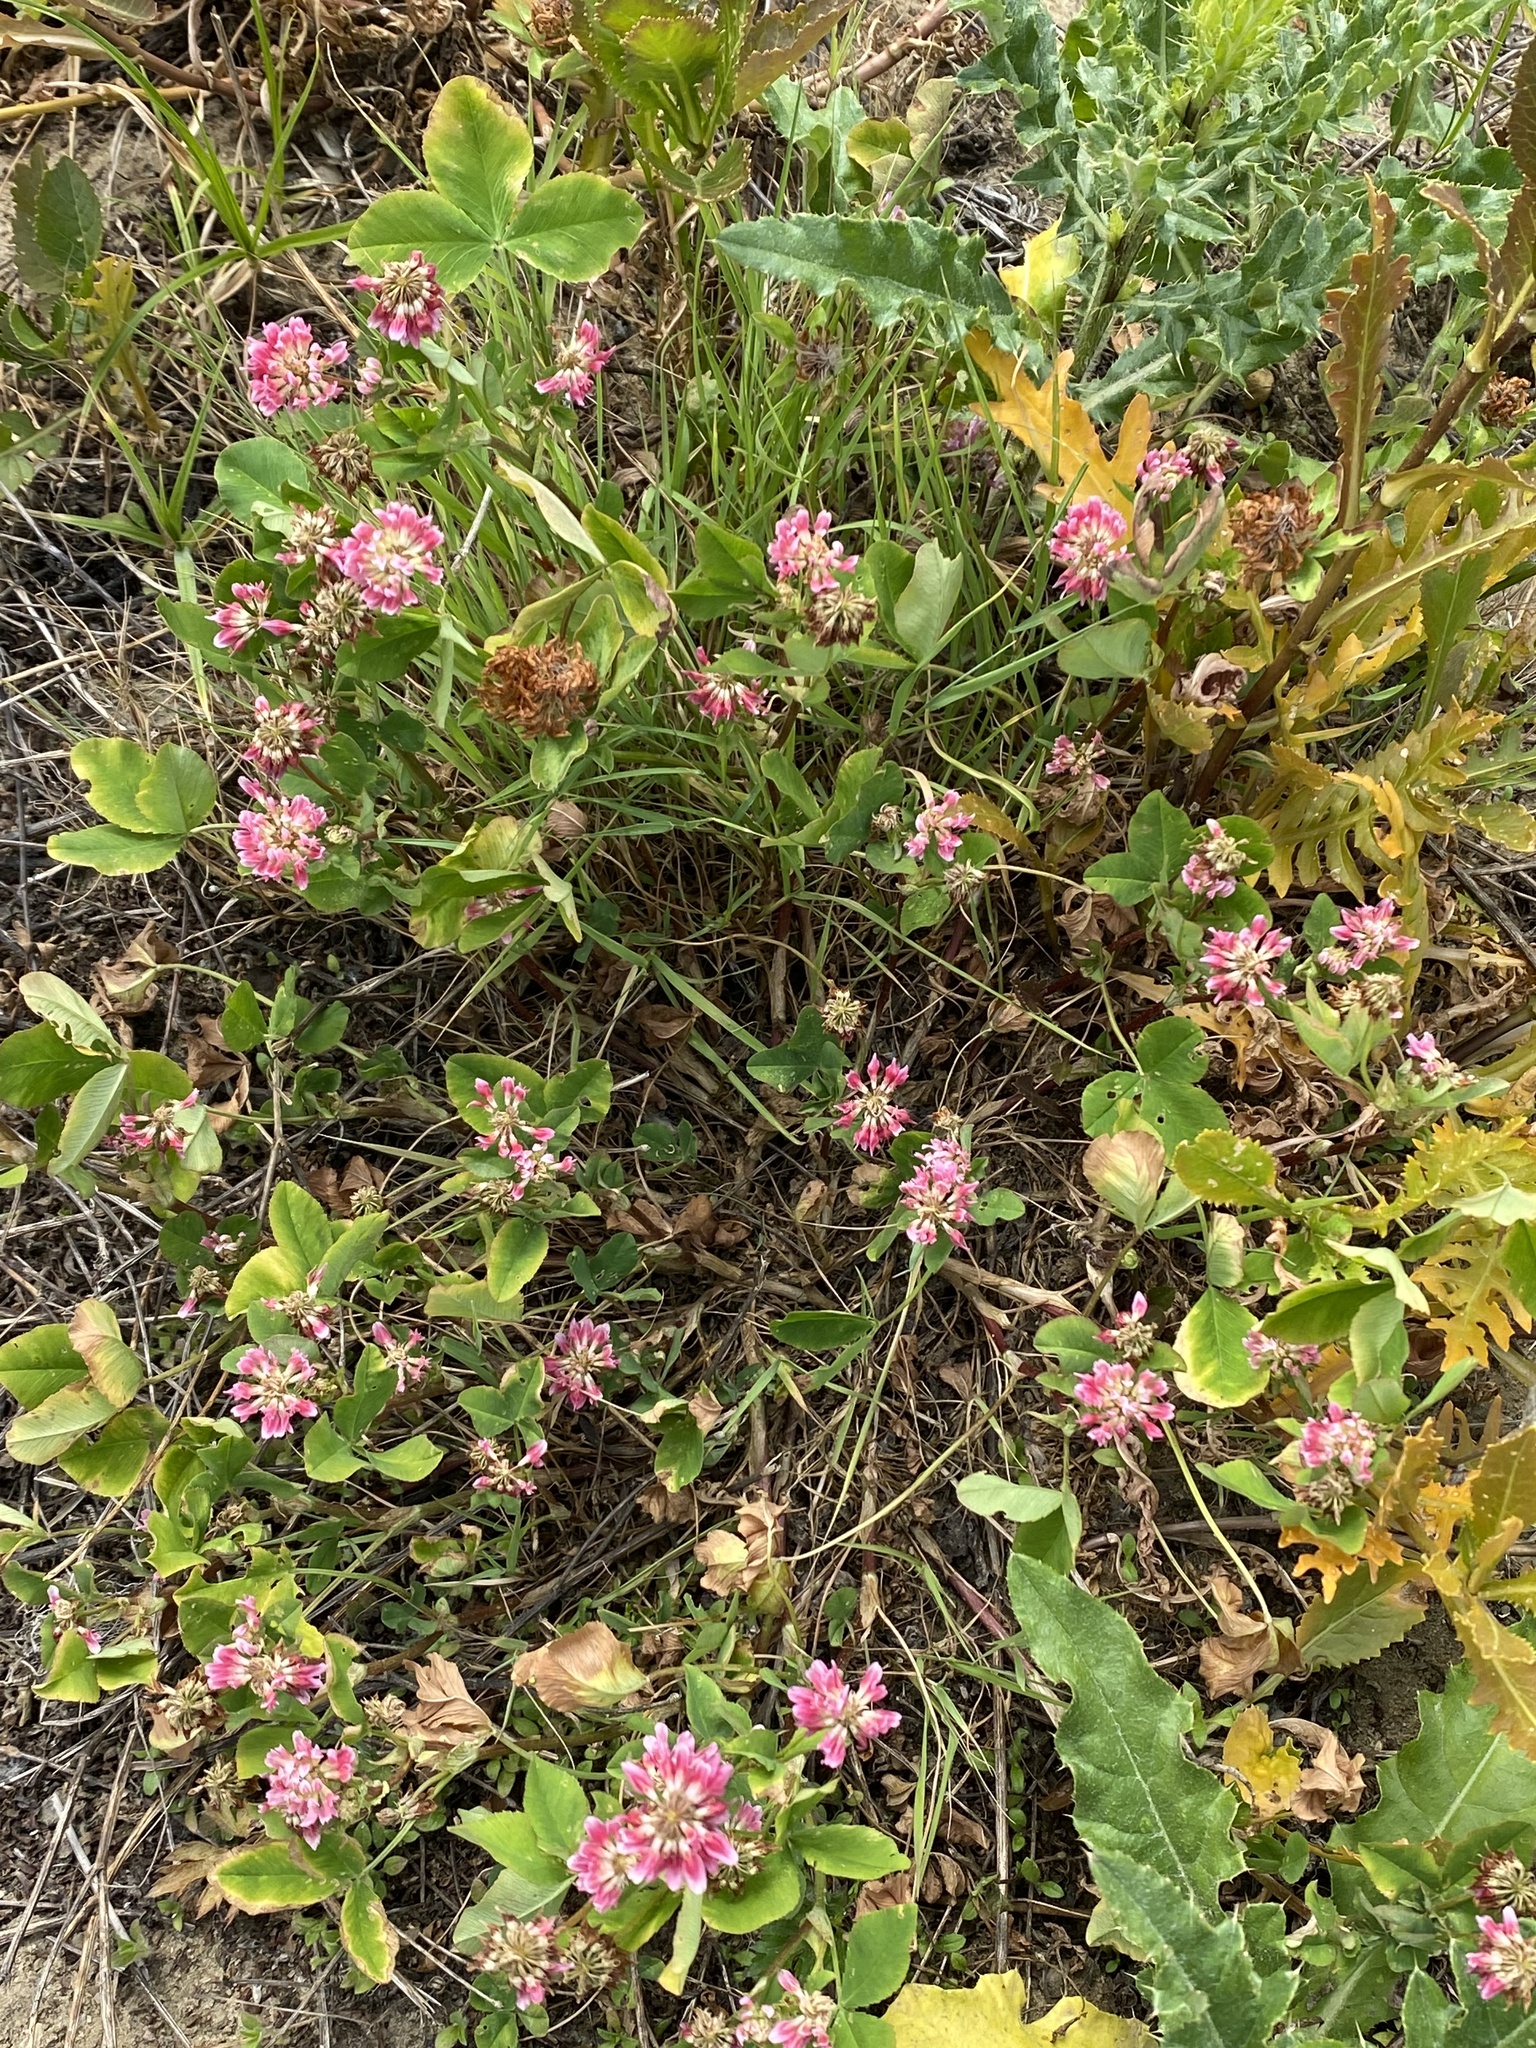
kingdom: Plantae
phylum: Tracheophyta
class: Magnoliopsida
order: Fabales
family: Fabaceae
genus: Trifolium
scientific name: Trifolium hybridum
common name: Alsike clover
